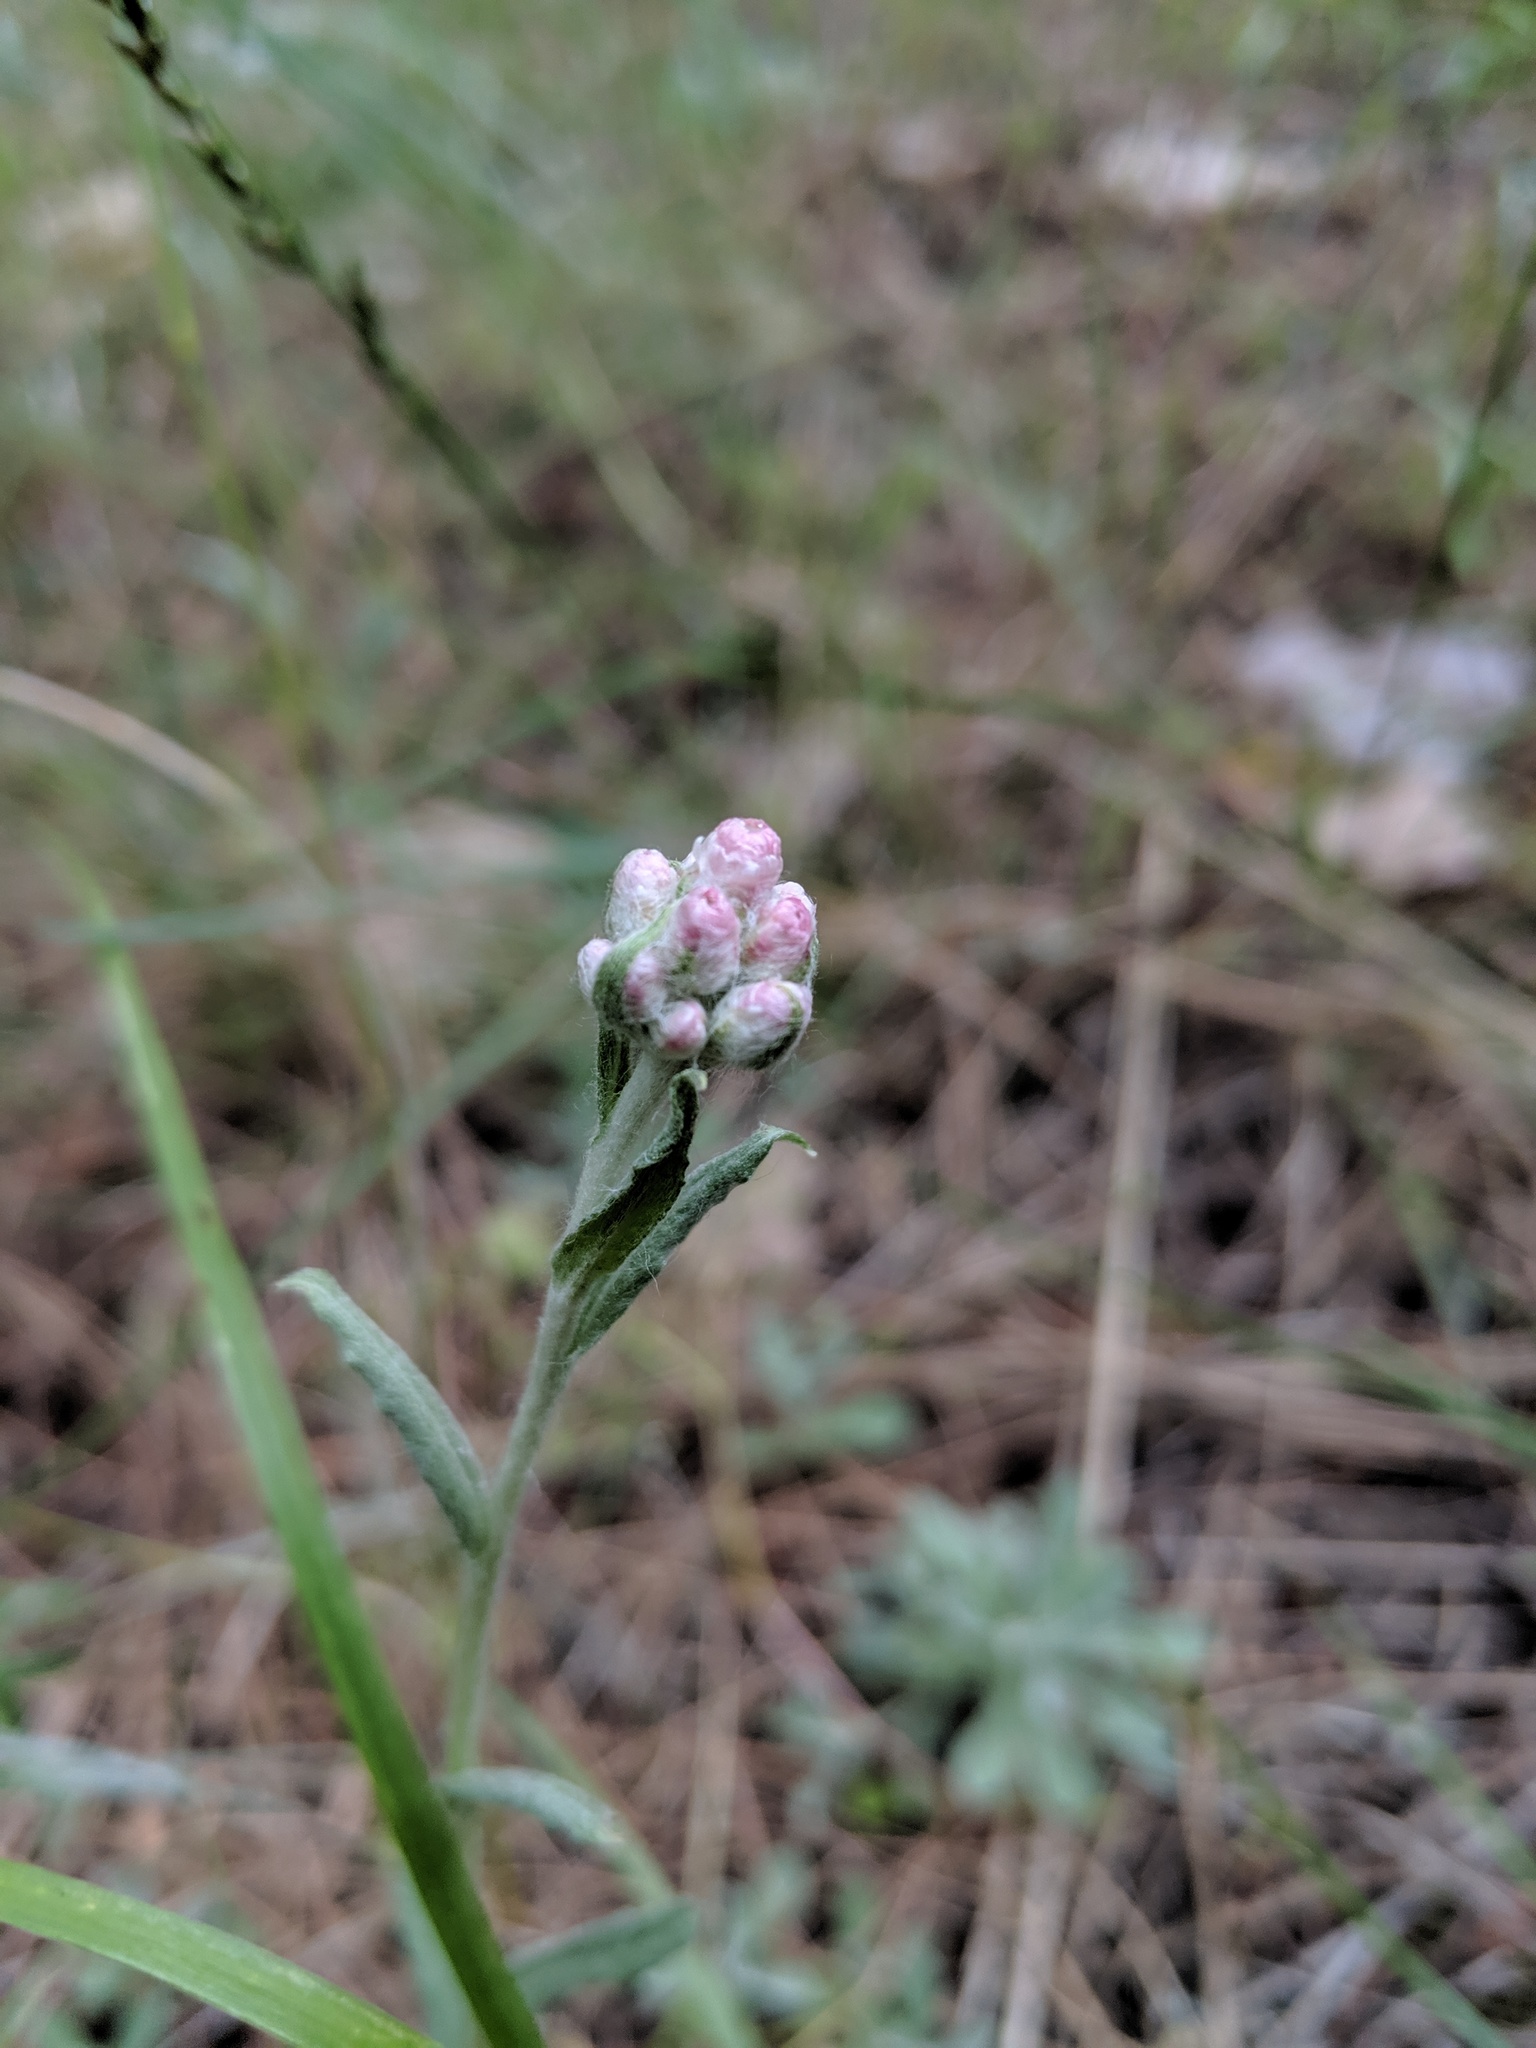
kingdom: Plantae
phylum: Tracheophyta
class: Magnoliopsida
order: Asterales
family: Asteraceae
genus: Antennaria
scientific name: Antennaria rosea
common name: Rosy pussytoes
